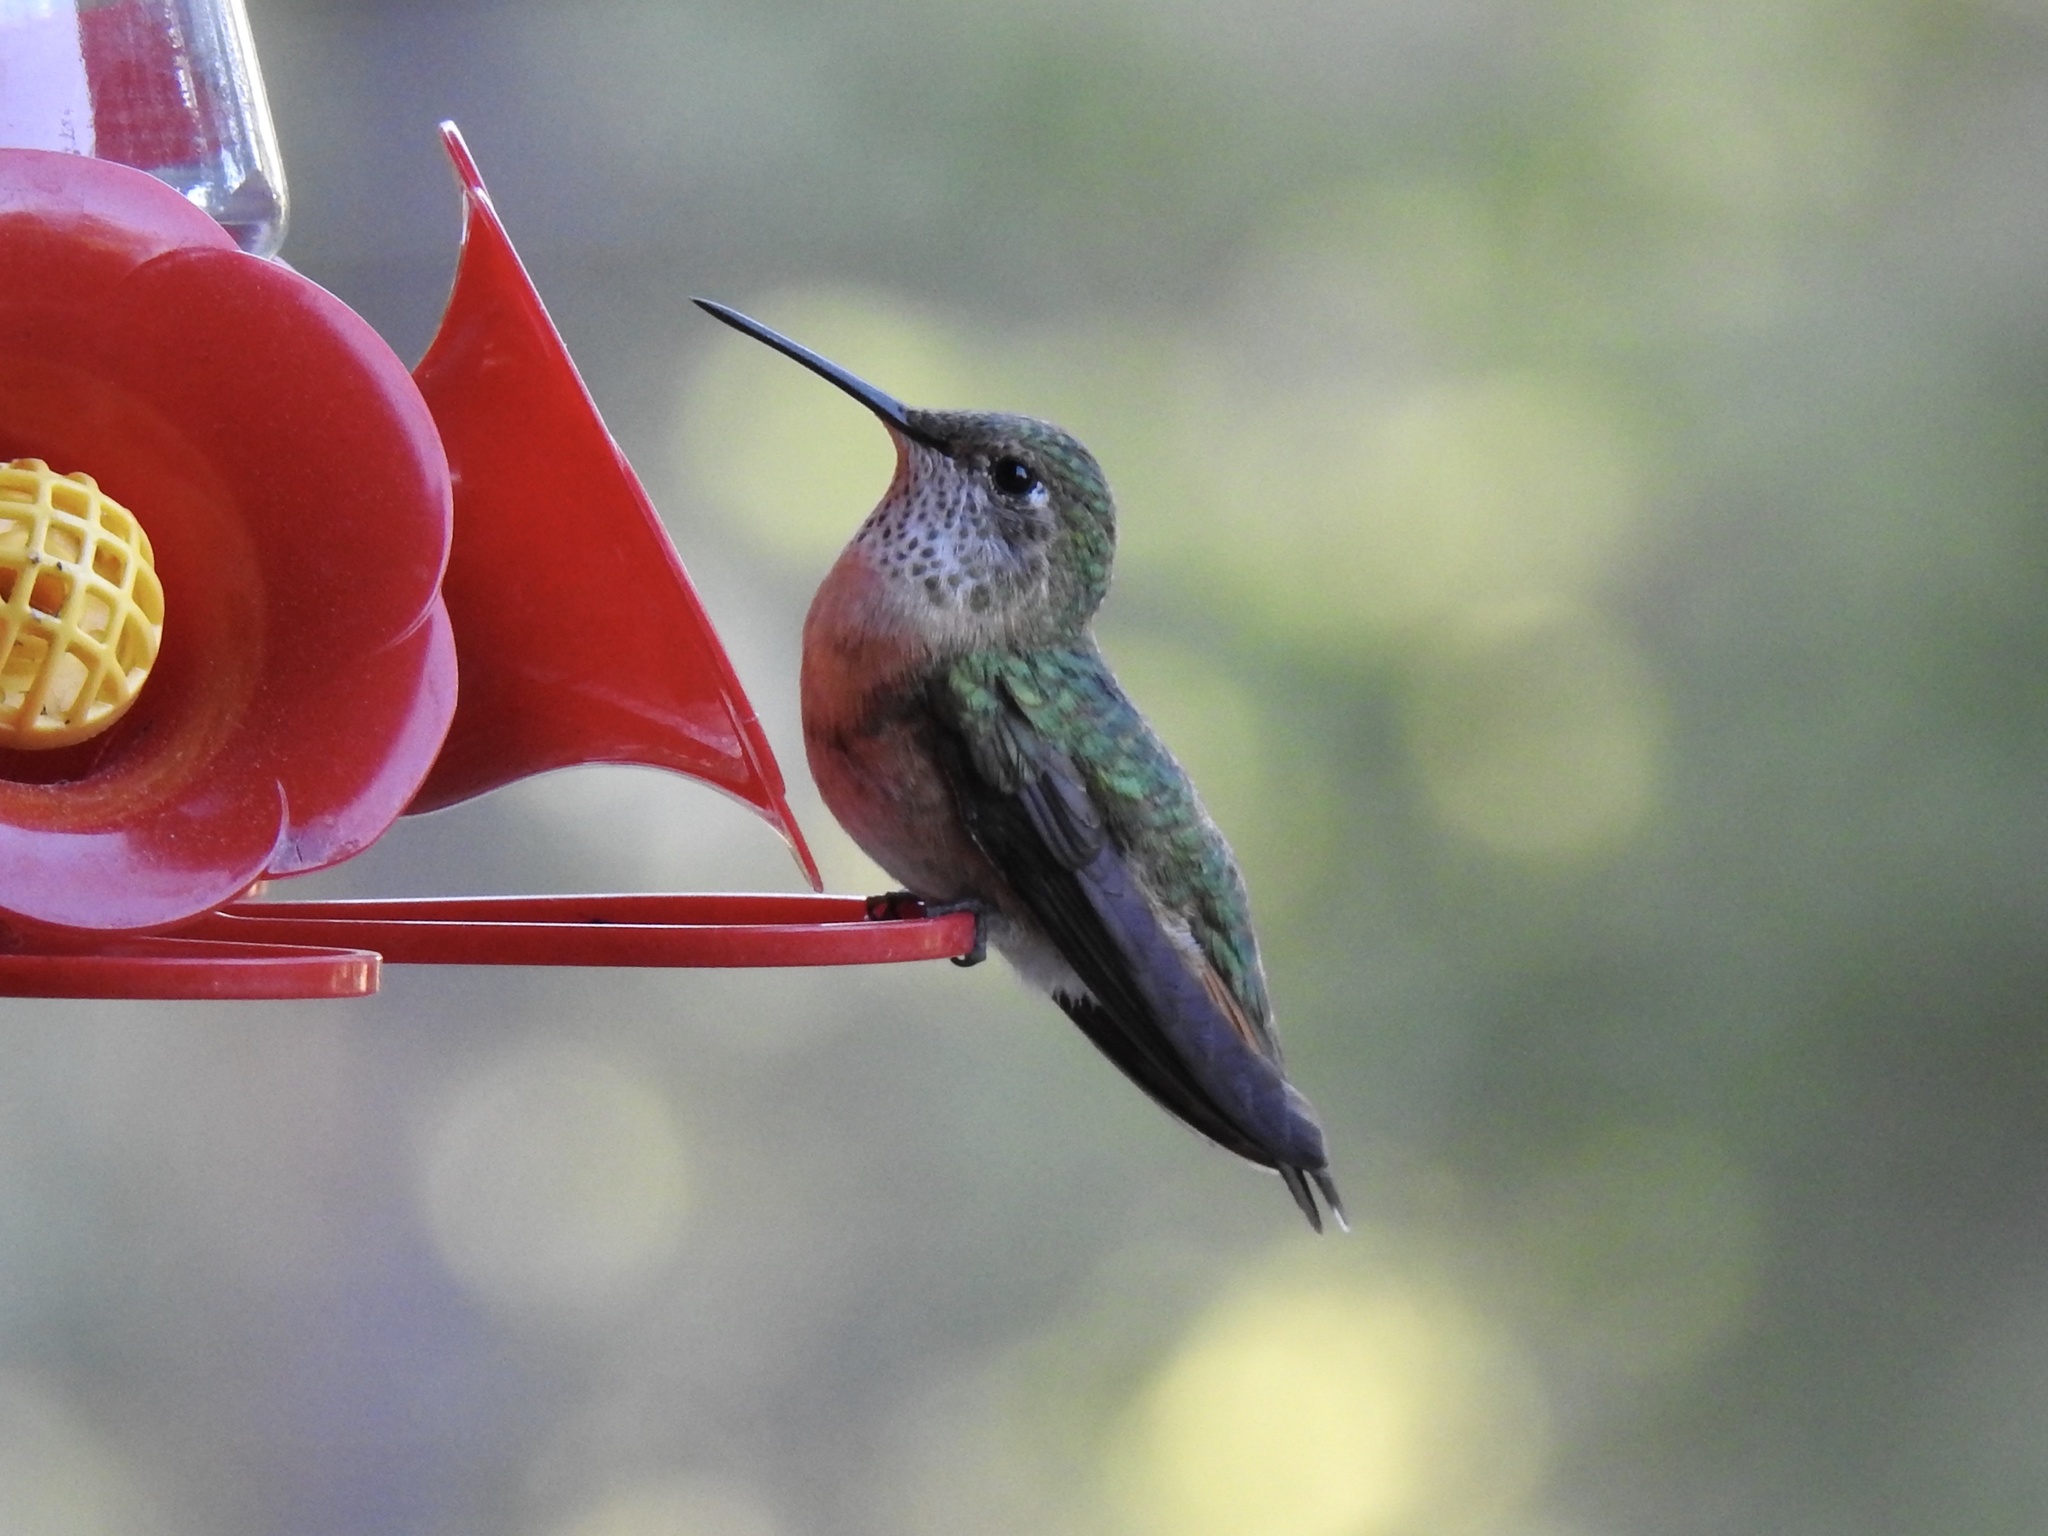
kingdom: Animalia
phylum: Chordata
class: Aves
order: Apodiformes
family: Trochilidae
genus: Selasphorus
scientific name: Selasphorus platycercus
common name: Broad-tailed hummingbird
